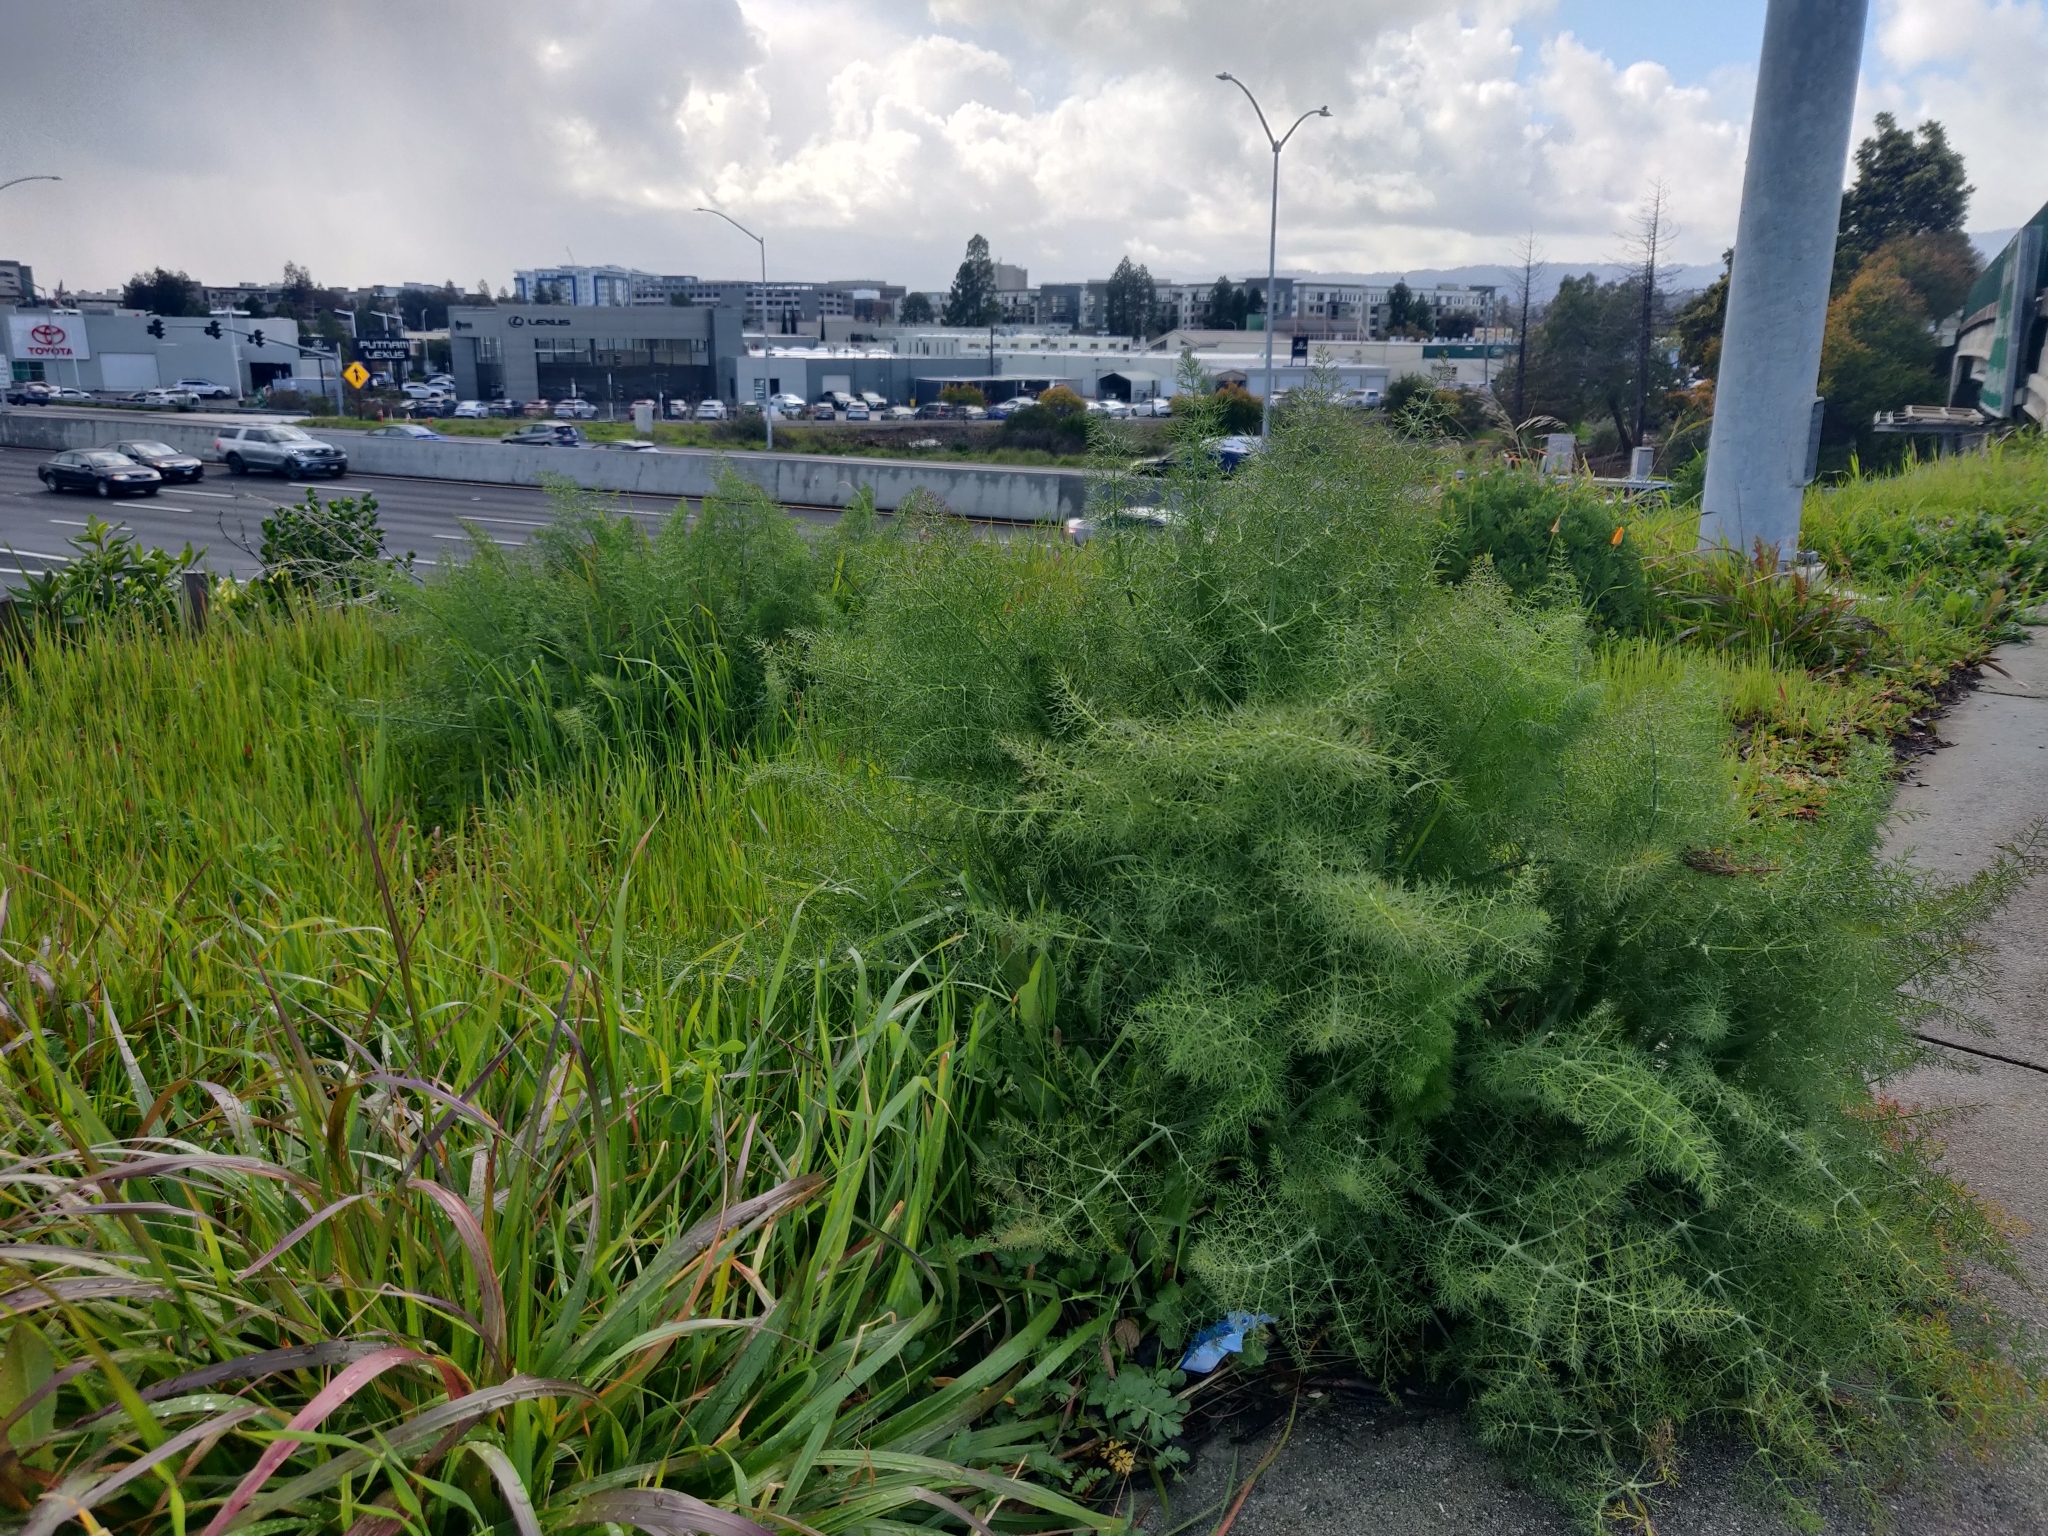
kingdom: Plantae
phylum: Tracheophyta
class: Magnoliopsida
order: Apiales
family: Apiaceae
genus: Foeniculum
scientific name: Foeniculum vulgare
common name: Fennel
